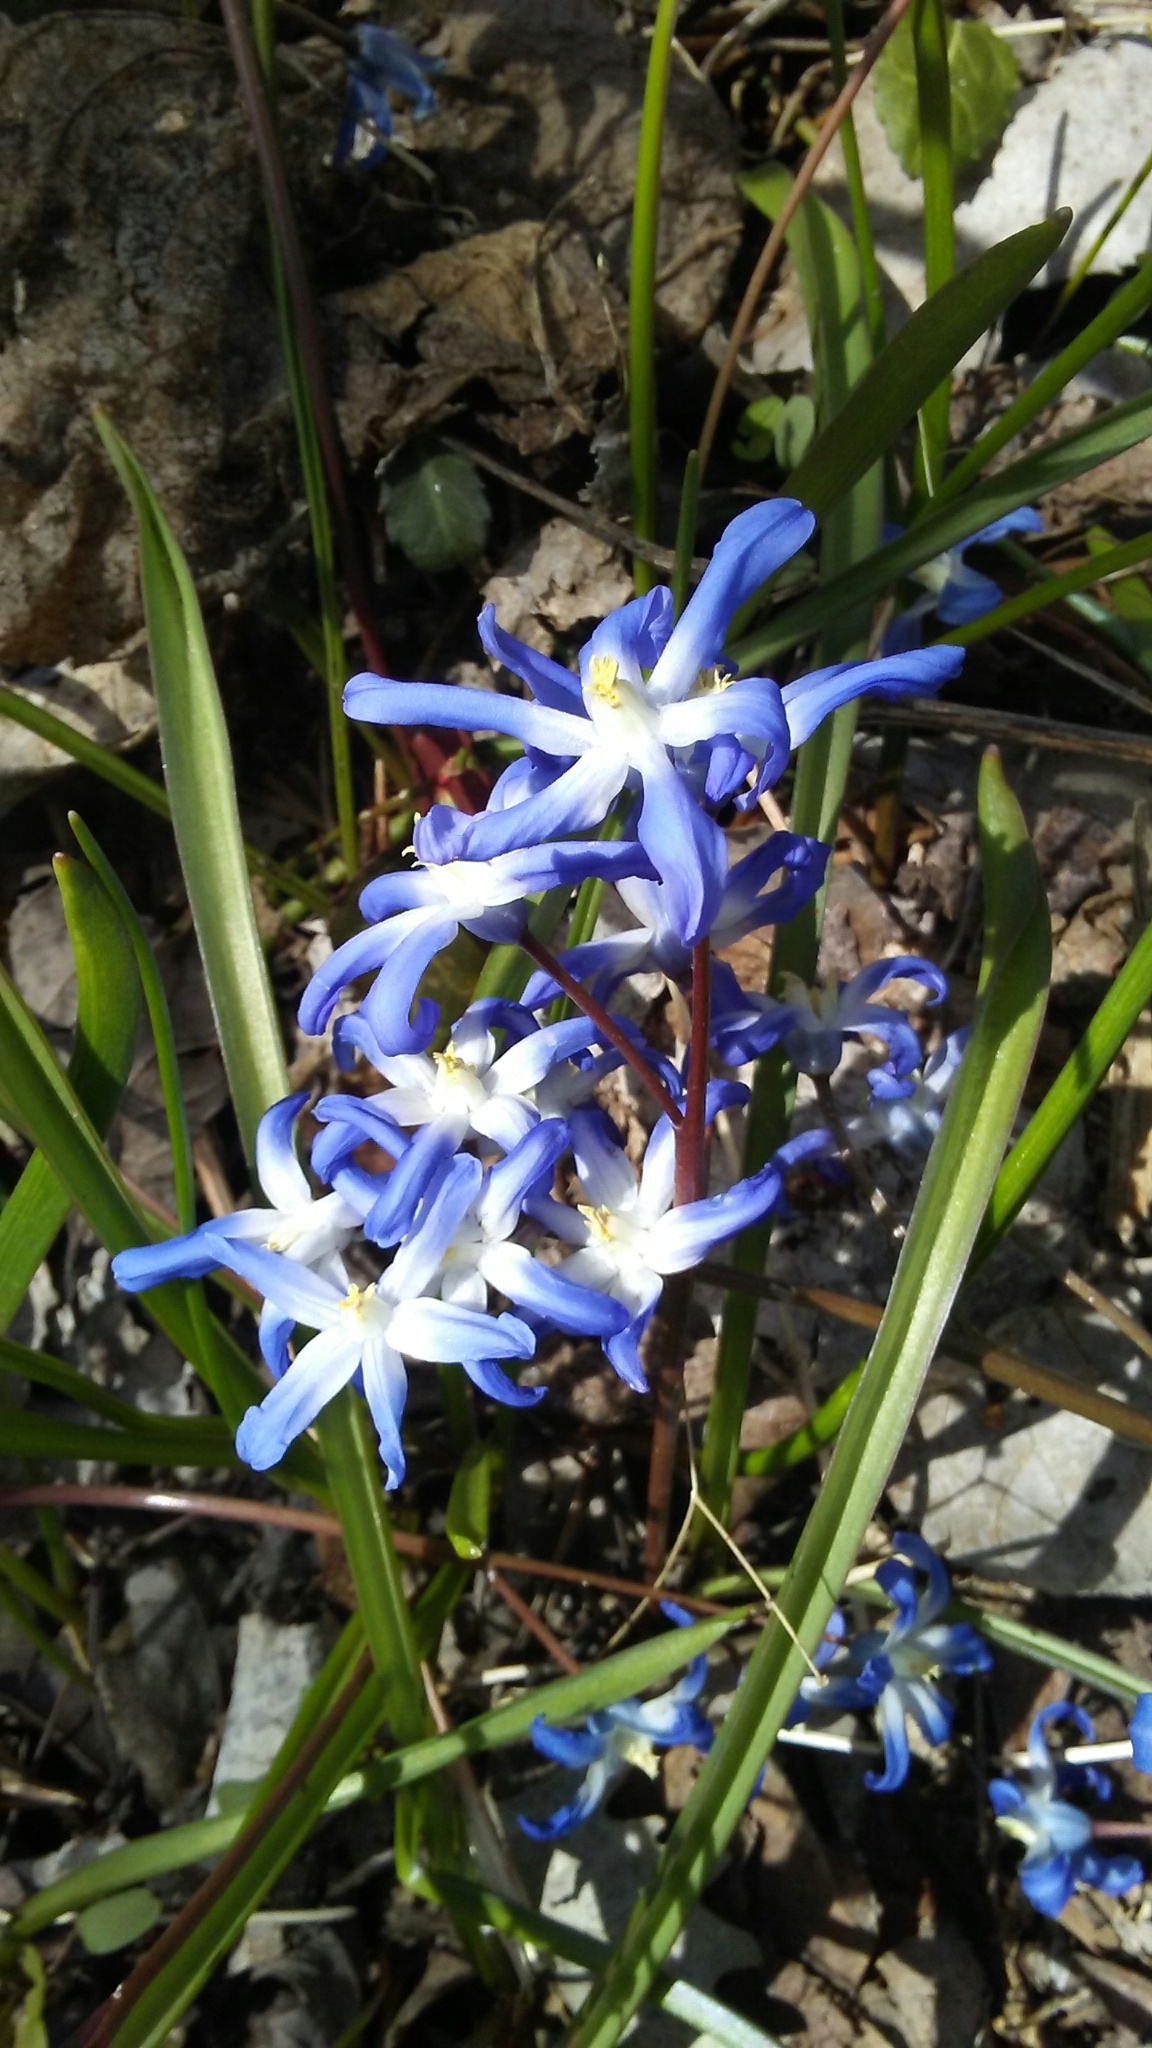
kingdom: Plantae
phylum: Tracheophyta
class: Liliopsida
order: Asparagales
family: Asparagaceae
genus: Scilla
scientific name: Scilla forbesii
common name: Glory-of-the-snow
